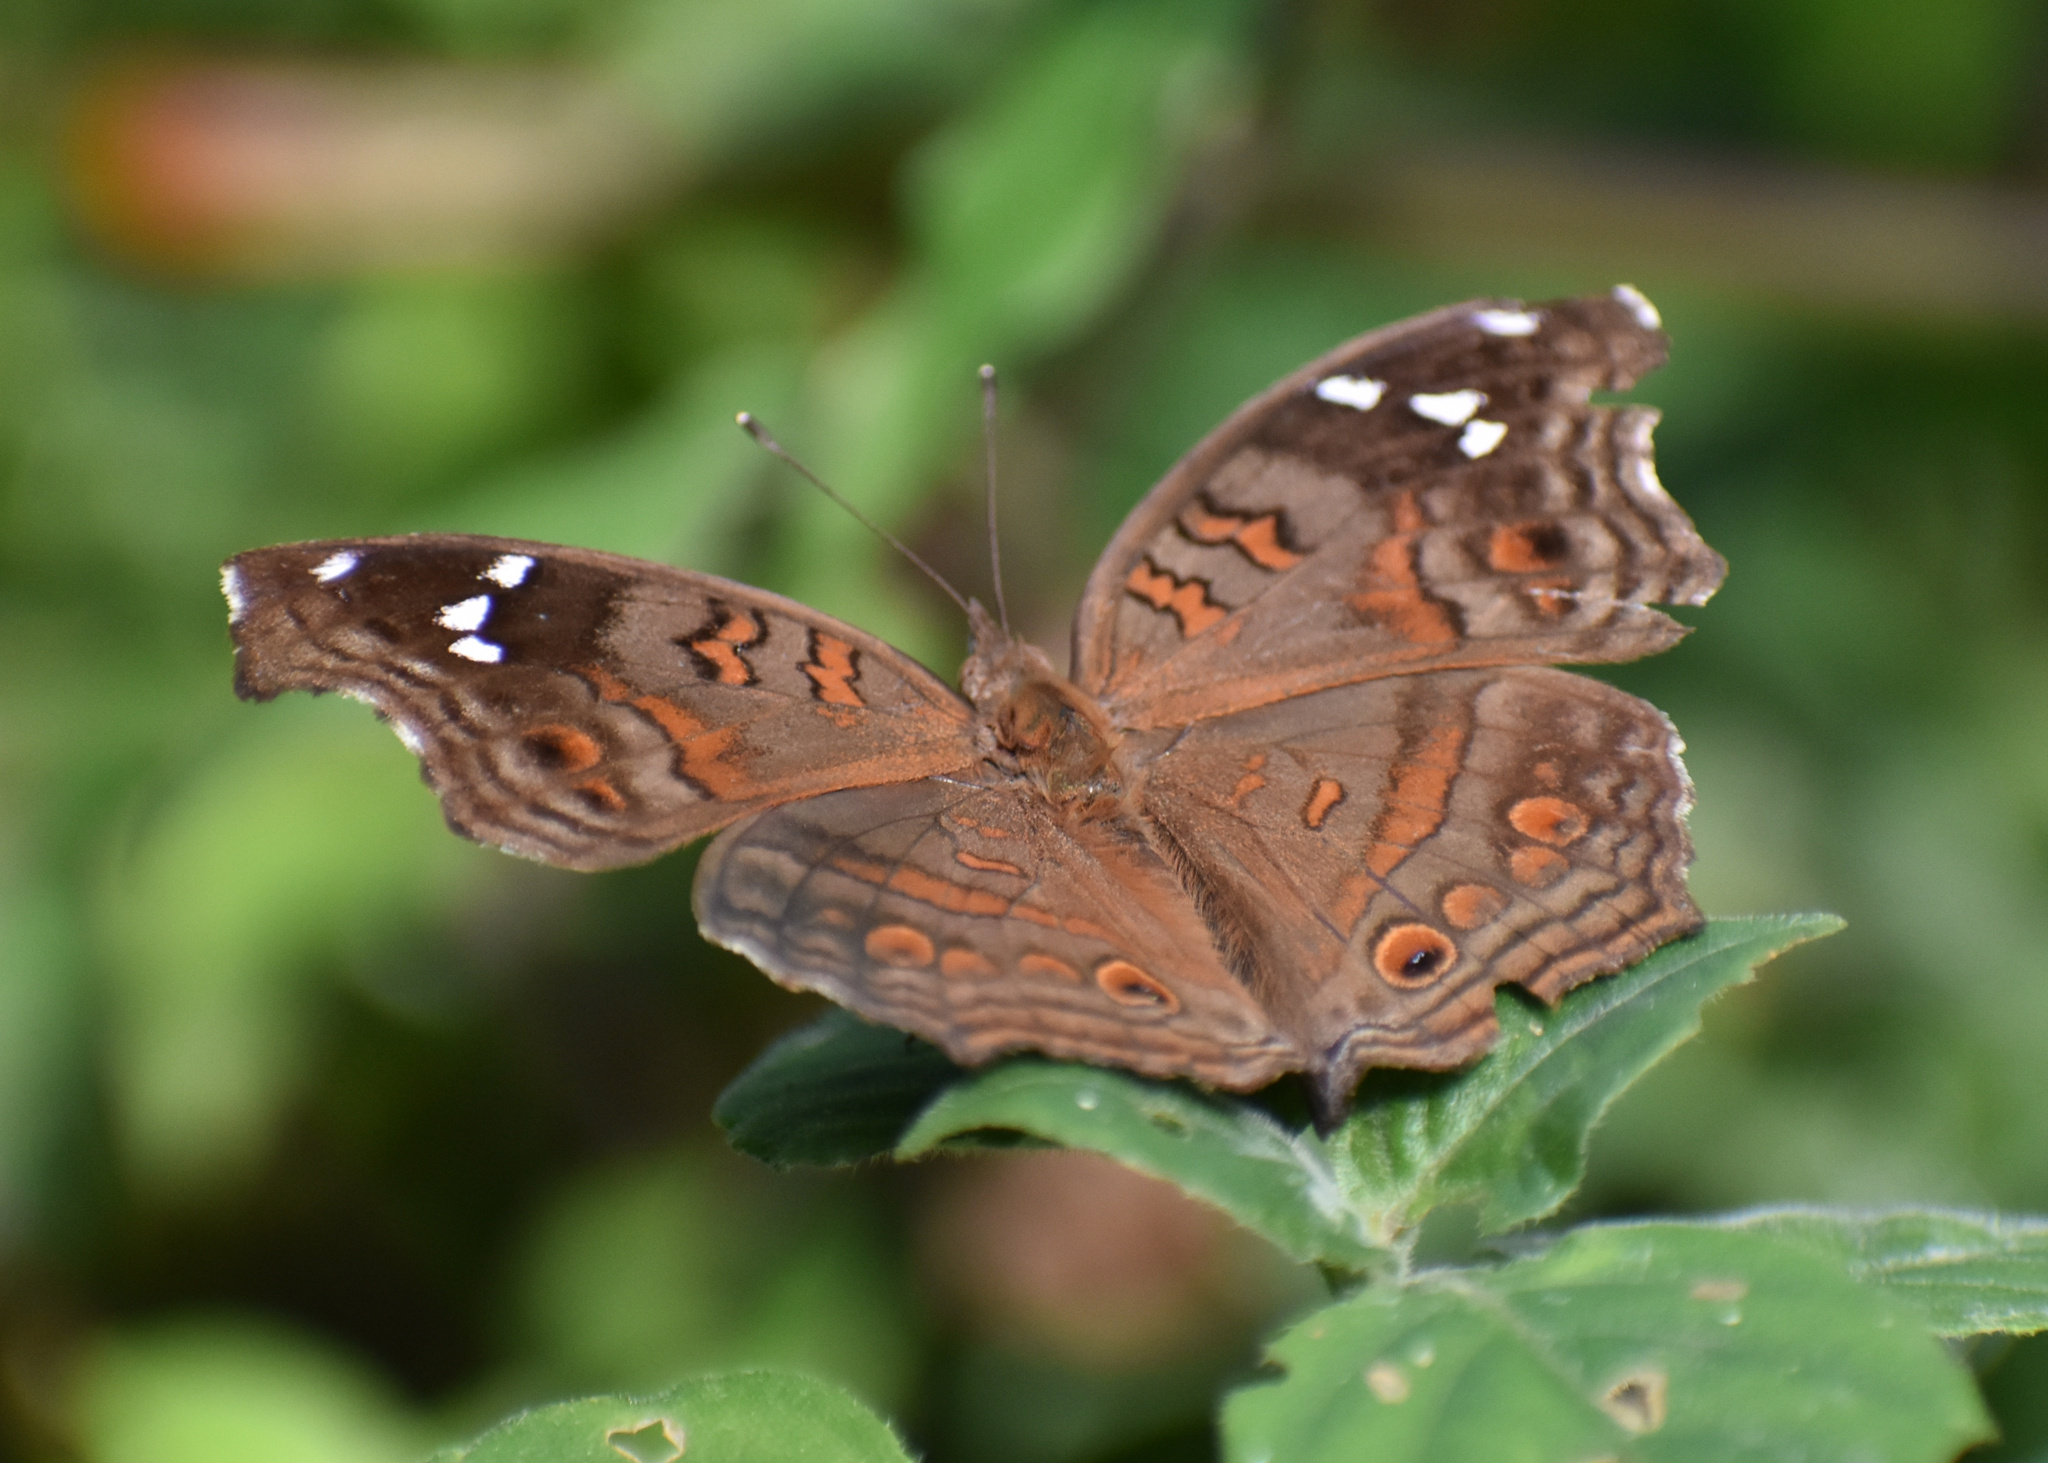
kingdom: Animalia
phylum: Arthropoda
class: Insecta
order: Lepidoptera
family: Nymphalidae
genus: Junonia
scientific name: Junonia natalica
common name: Brown pansy
